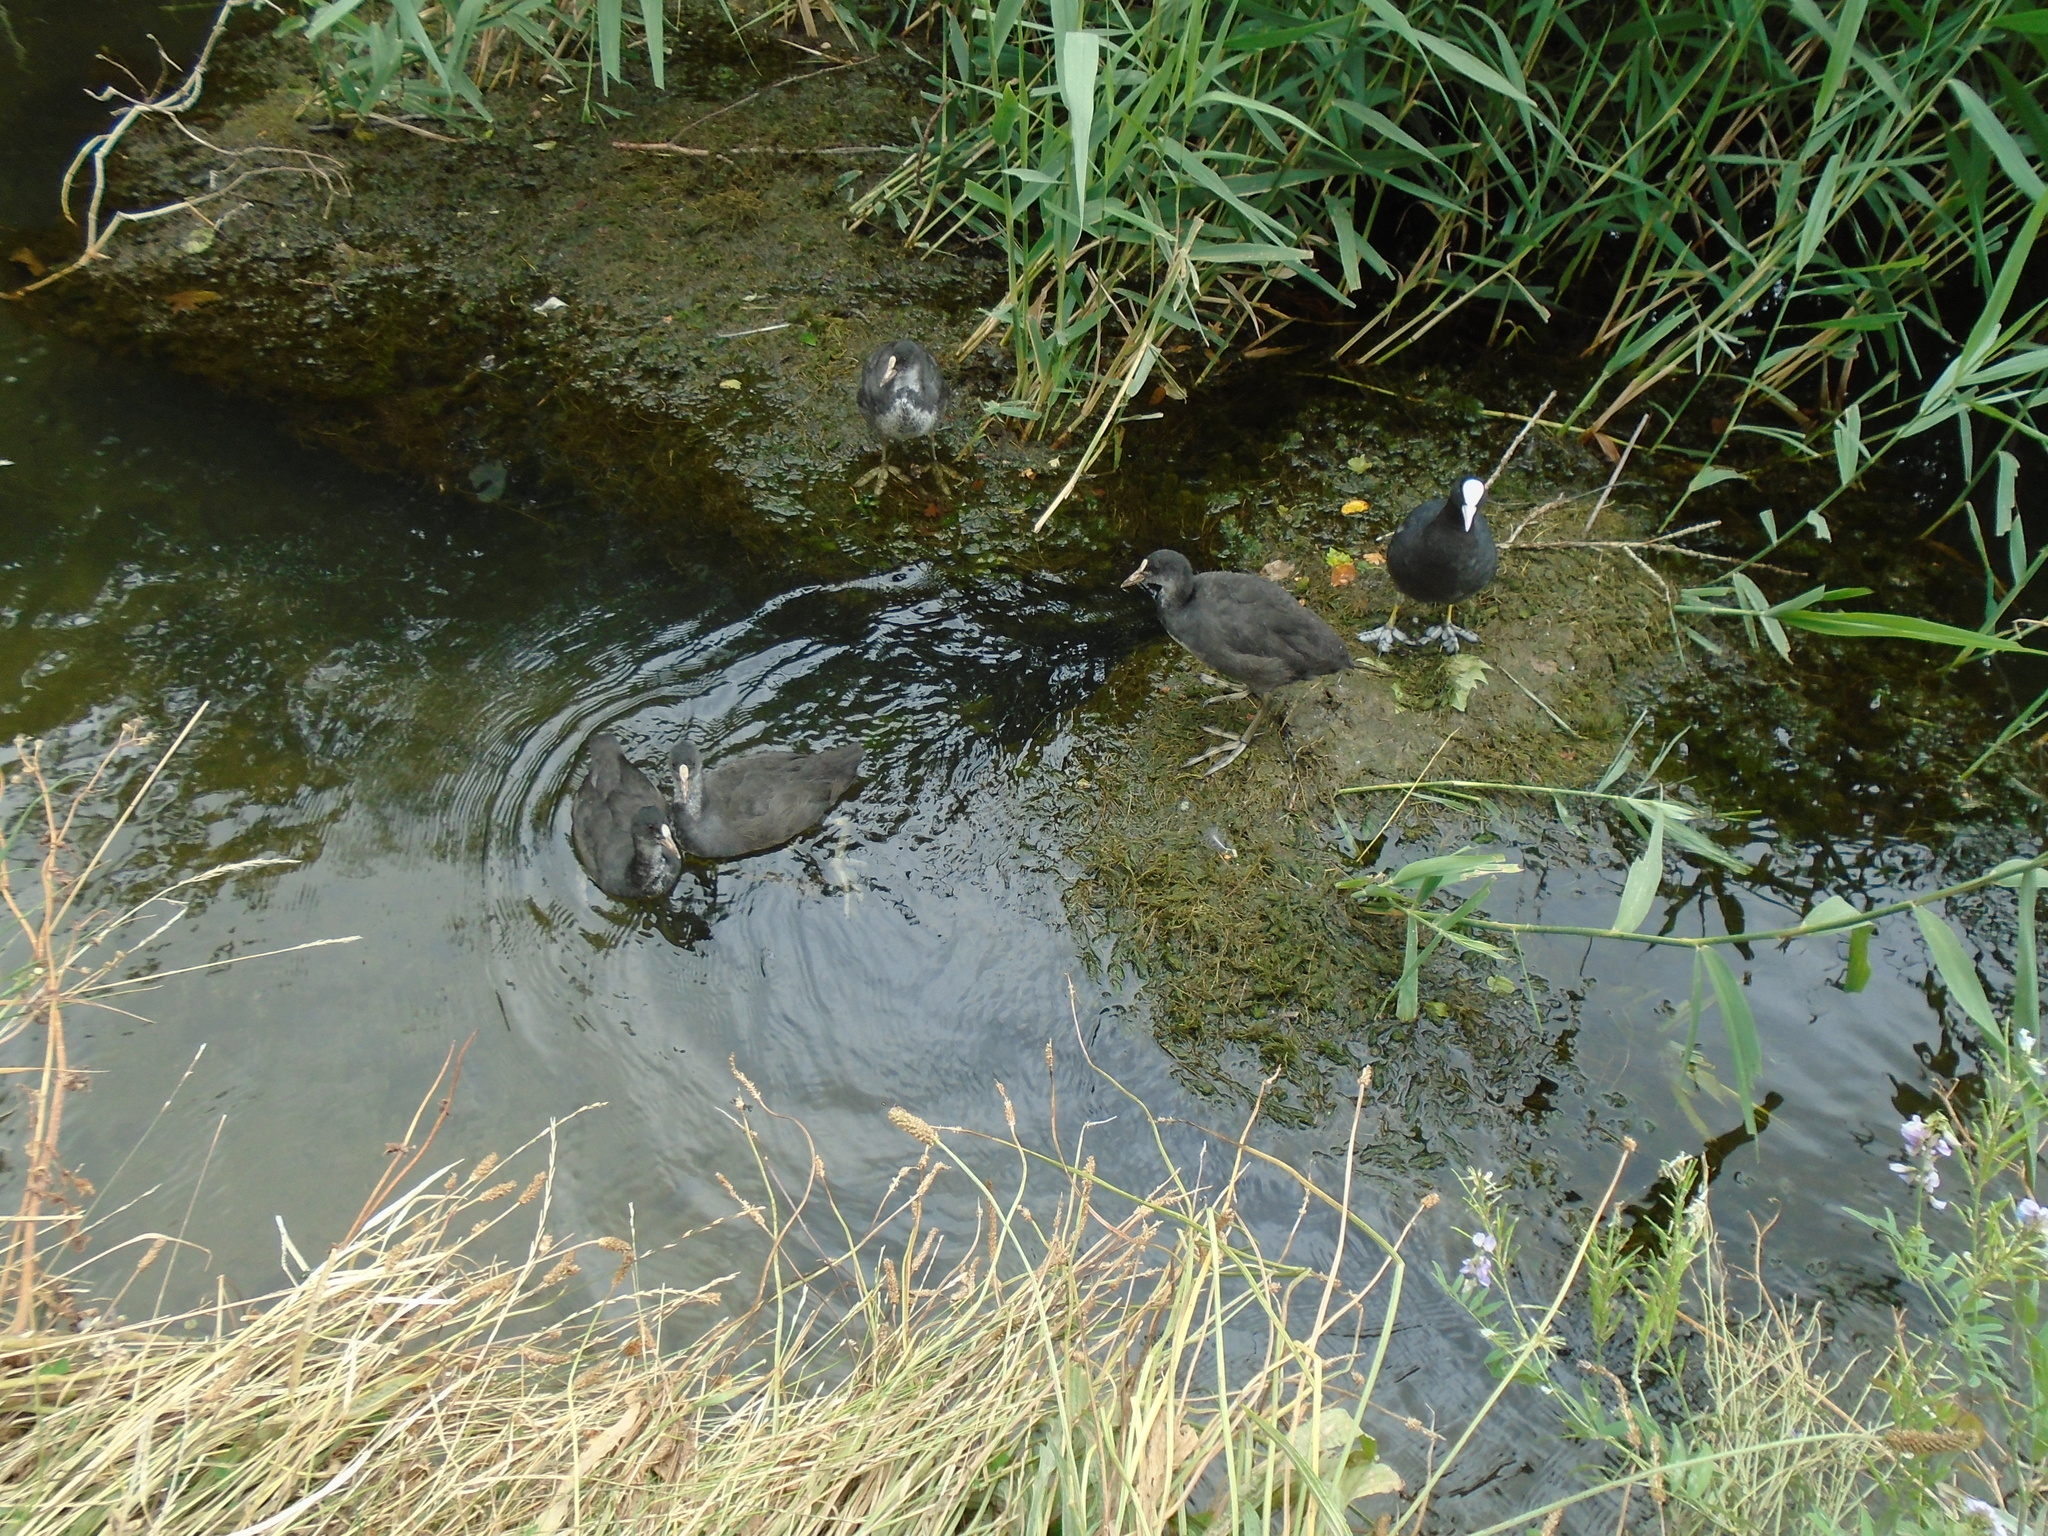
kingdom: Animalia
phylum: Chordata
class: Aves
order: Gruiformes
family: Rallidae
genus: Fulica
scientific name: Fulica atra
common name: Eurasian coot
